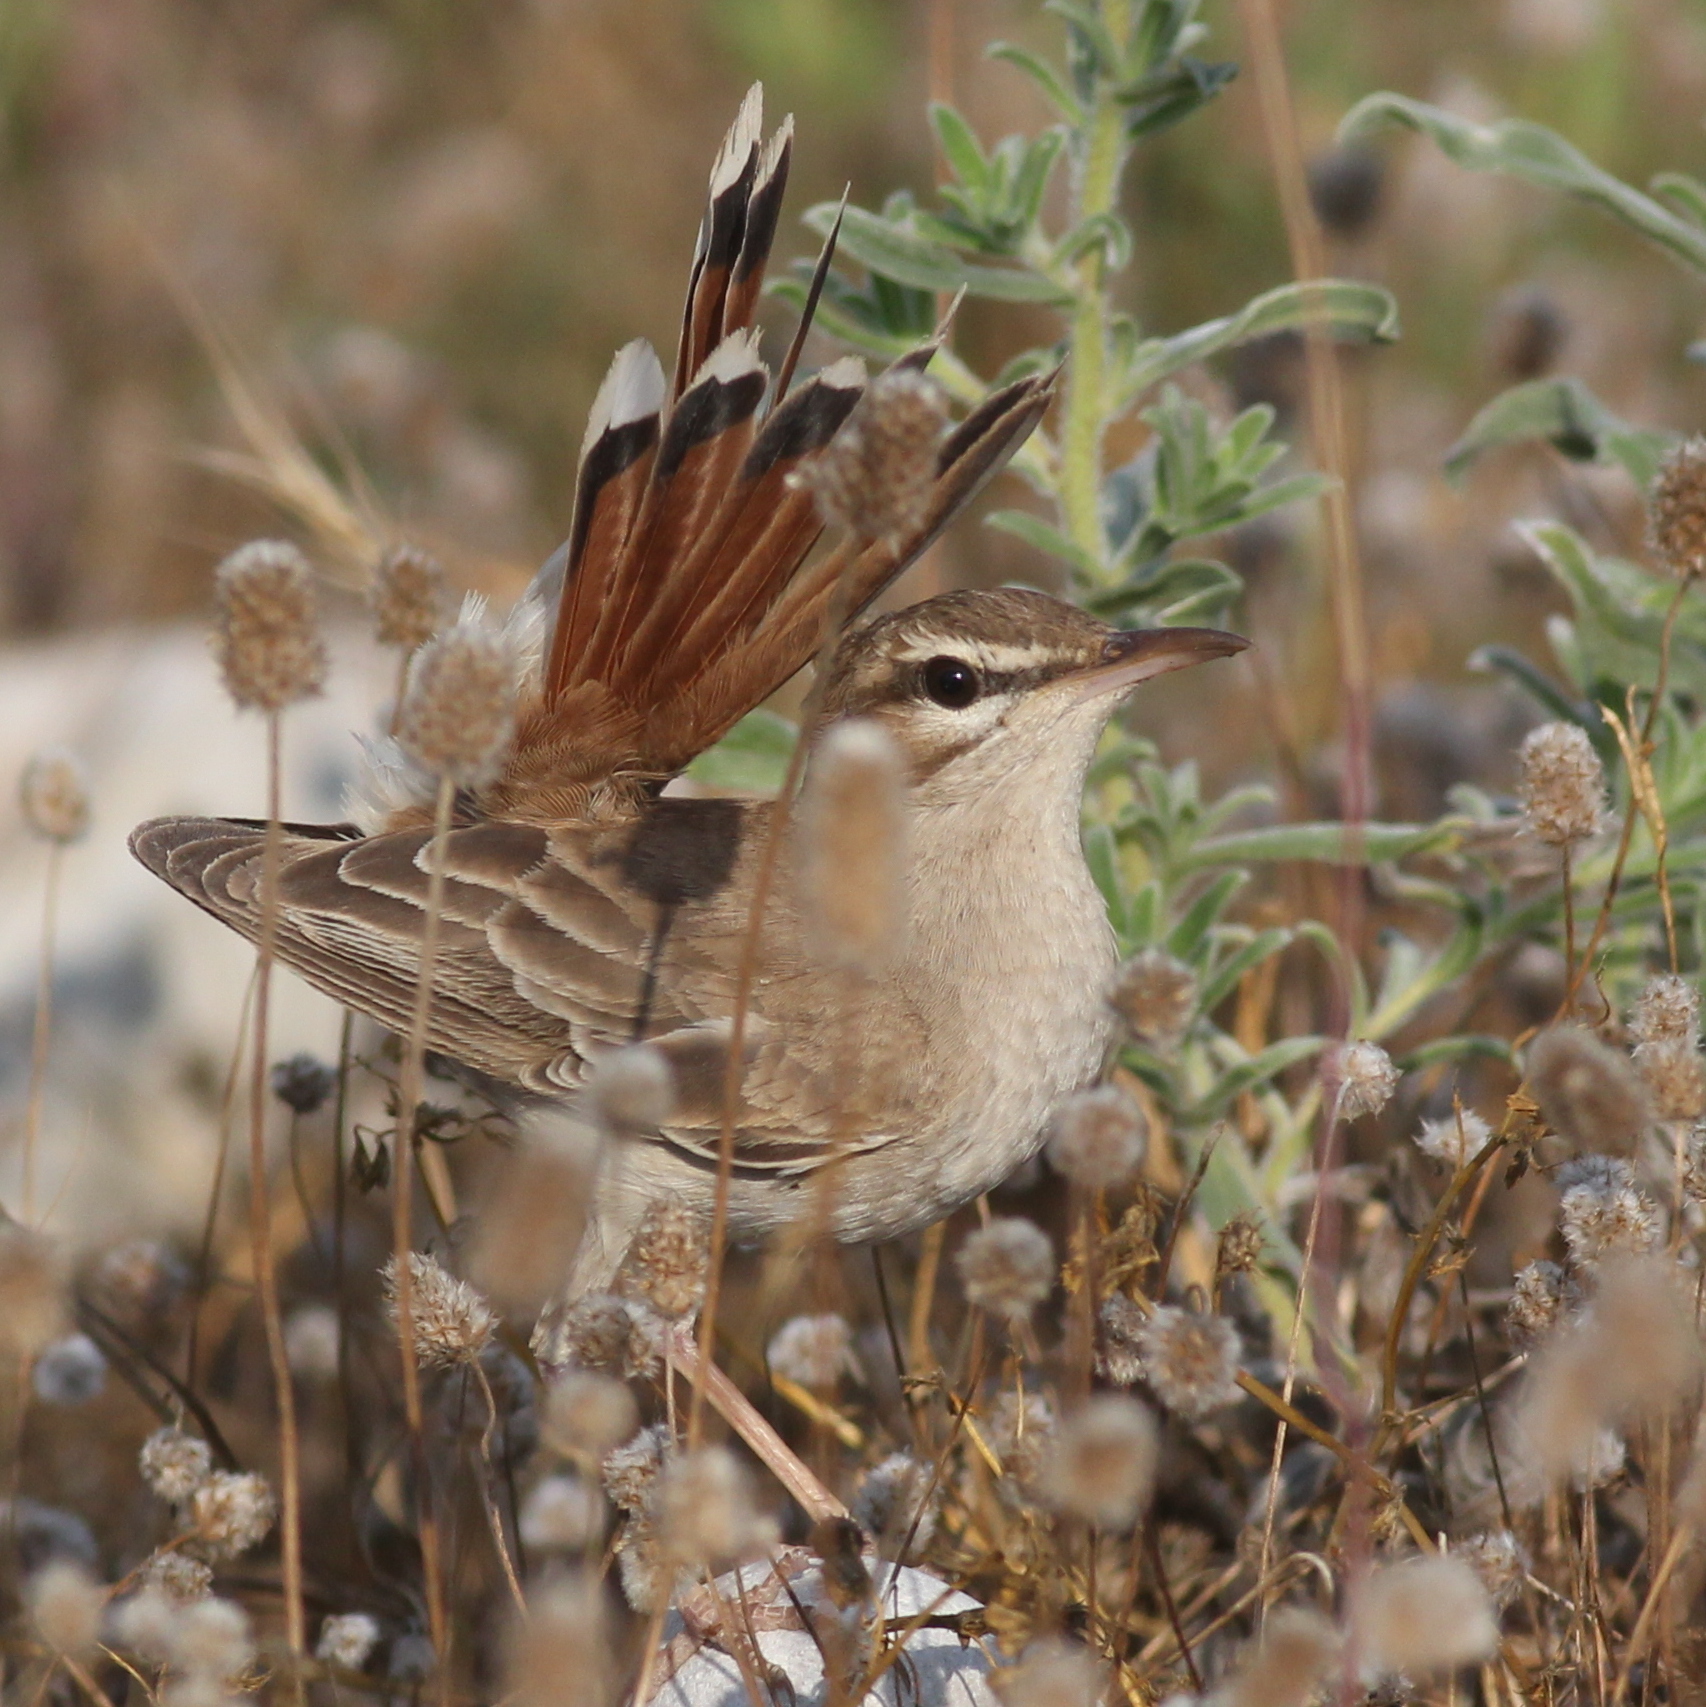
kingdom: Animalia
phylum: Chordata
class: Aves
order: Passeriformes
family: Muscicapidae
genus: Erythropygia
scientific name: Erythropygia galactotes
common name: Rufous-tailed scrub robin
